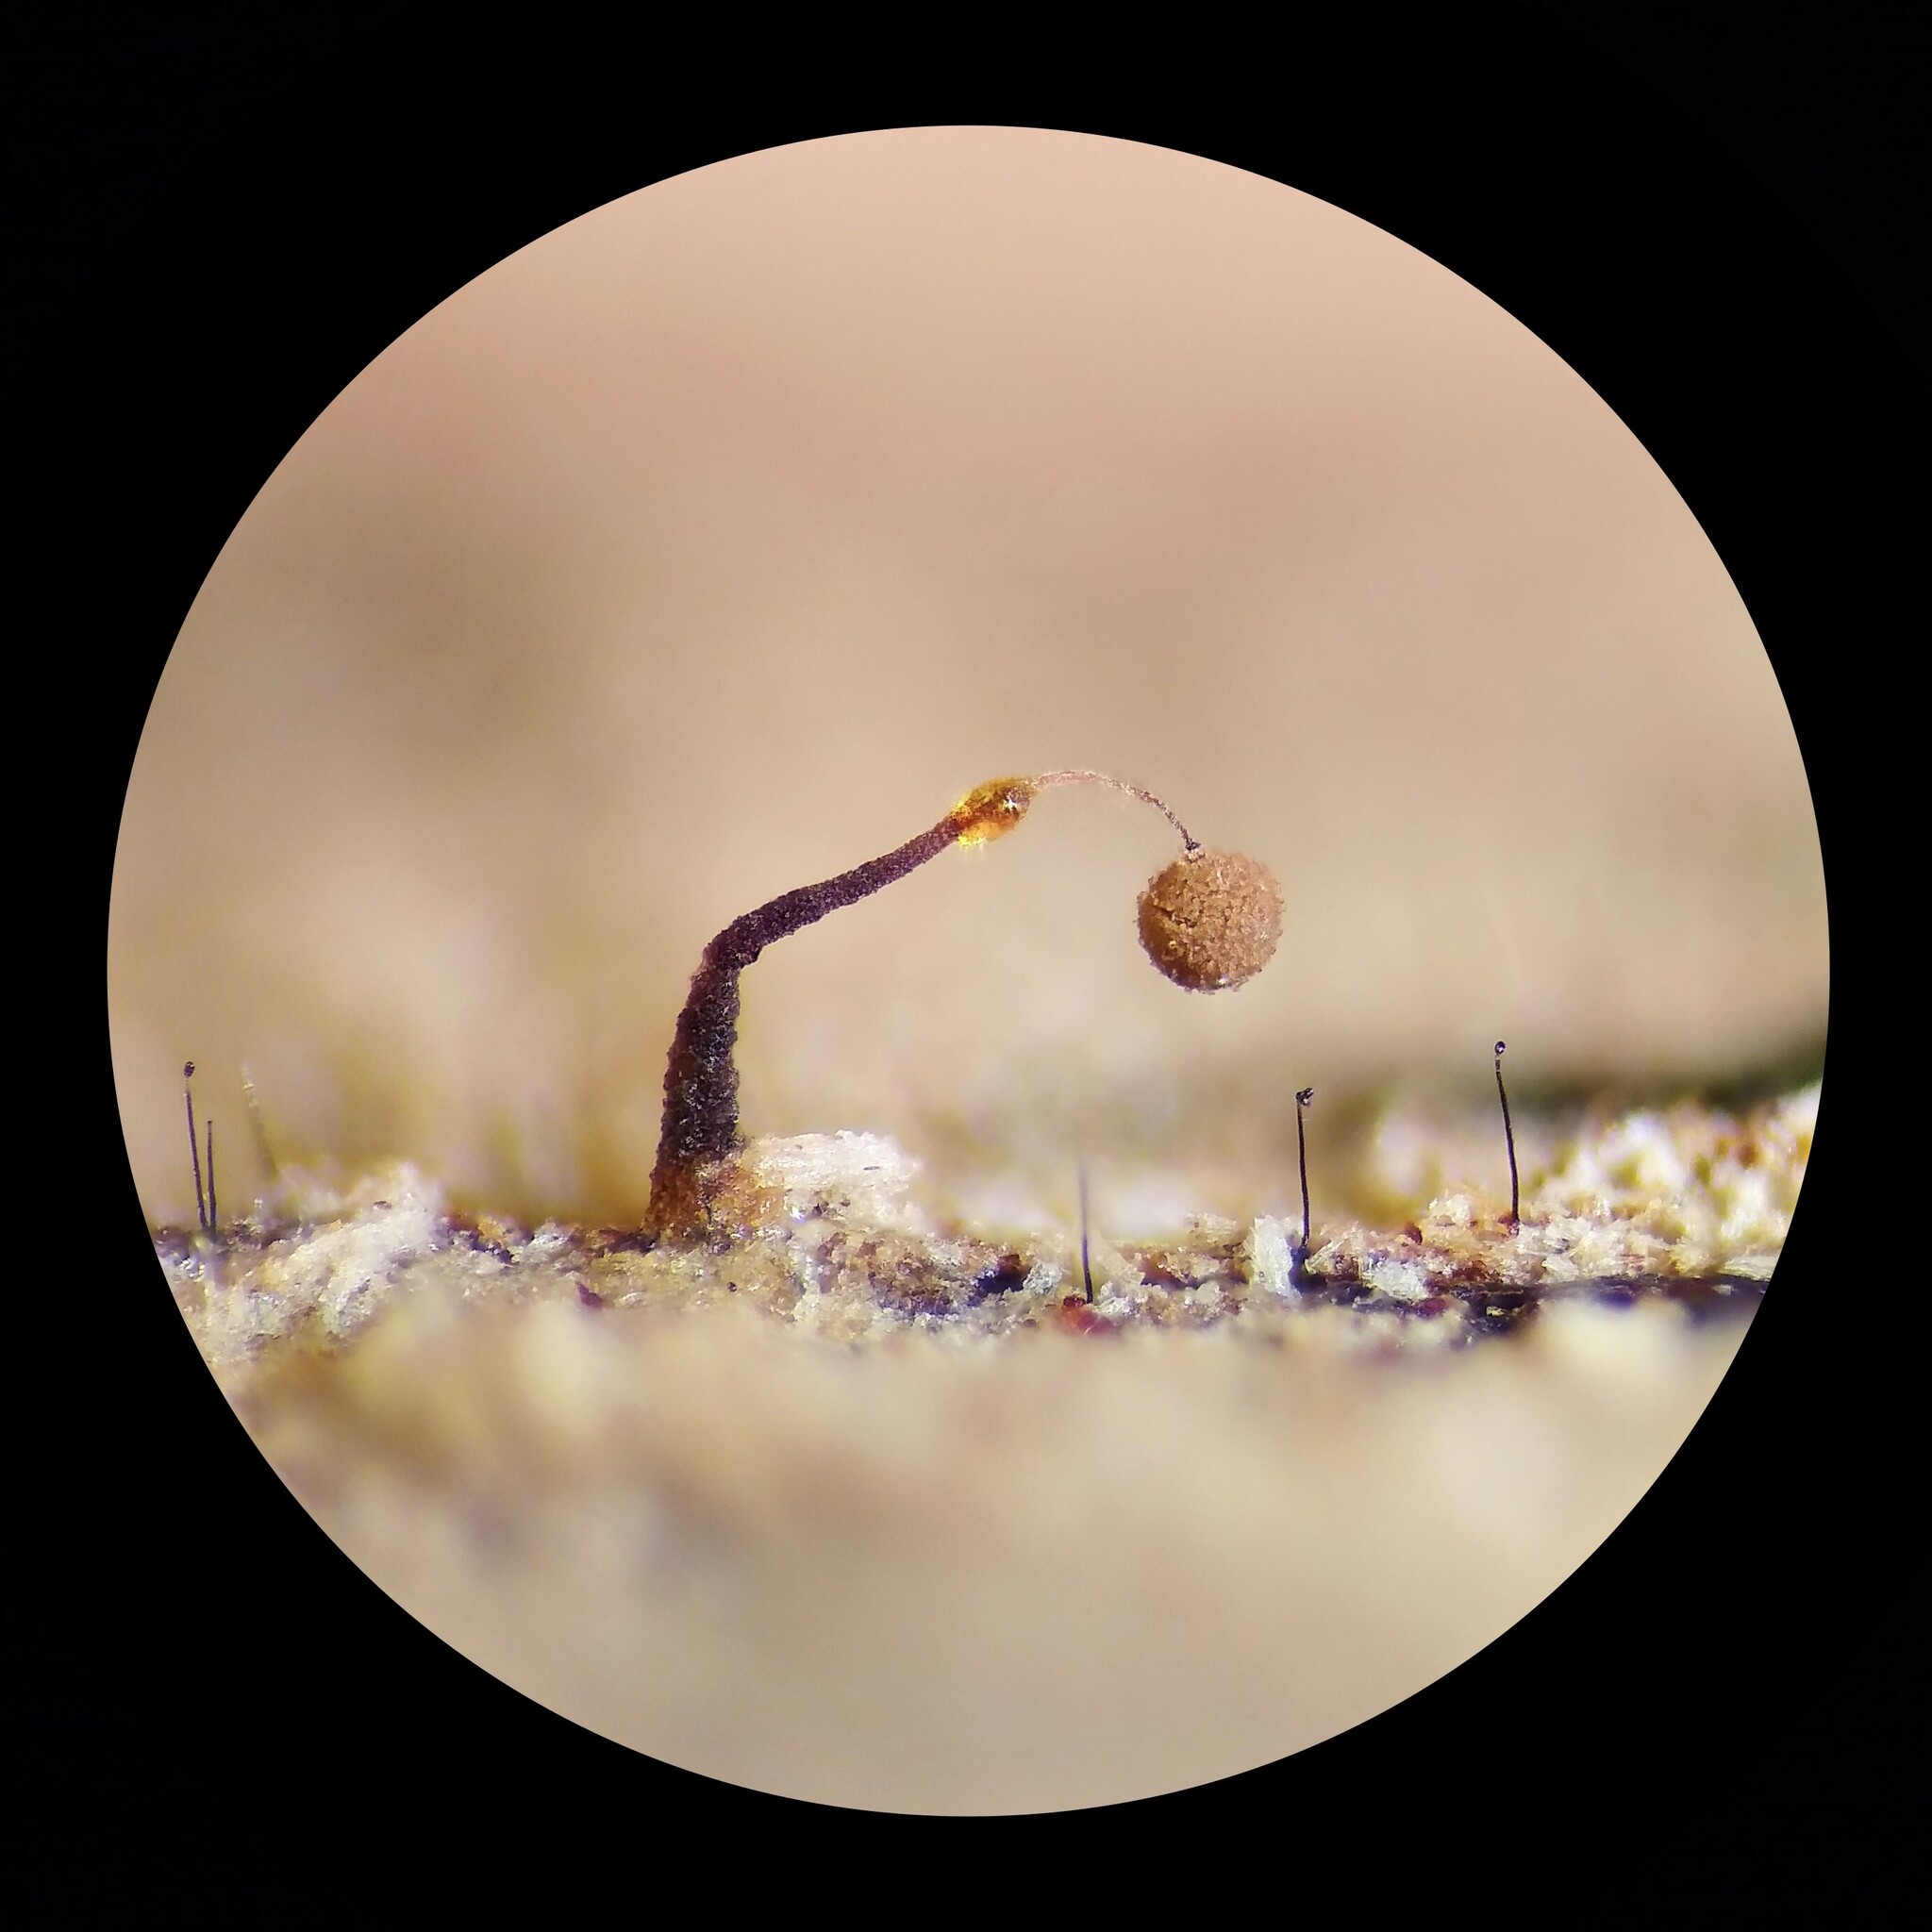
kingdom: Protozoa
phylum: Mycetozoa
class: Myxomycetes
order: Echinosteliales
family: Clastodermataceae
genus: Clastoderma
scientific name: Clastoderma debaryanum
